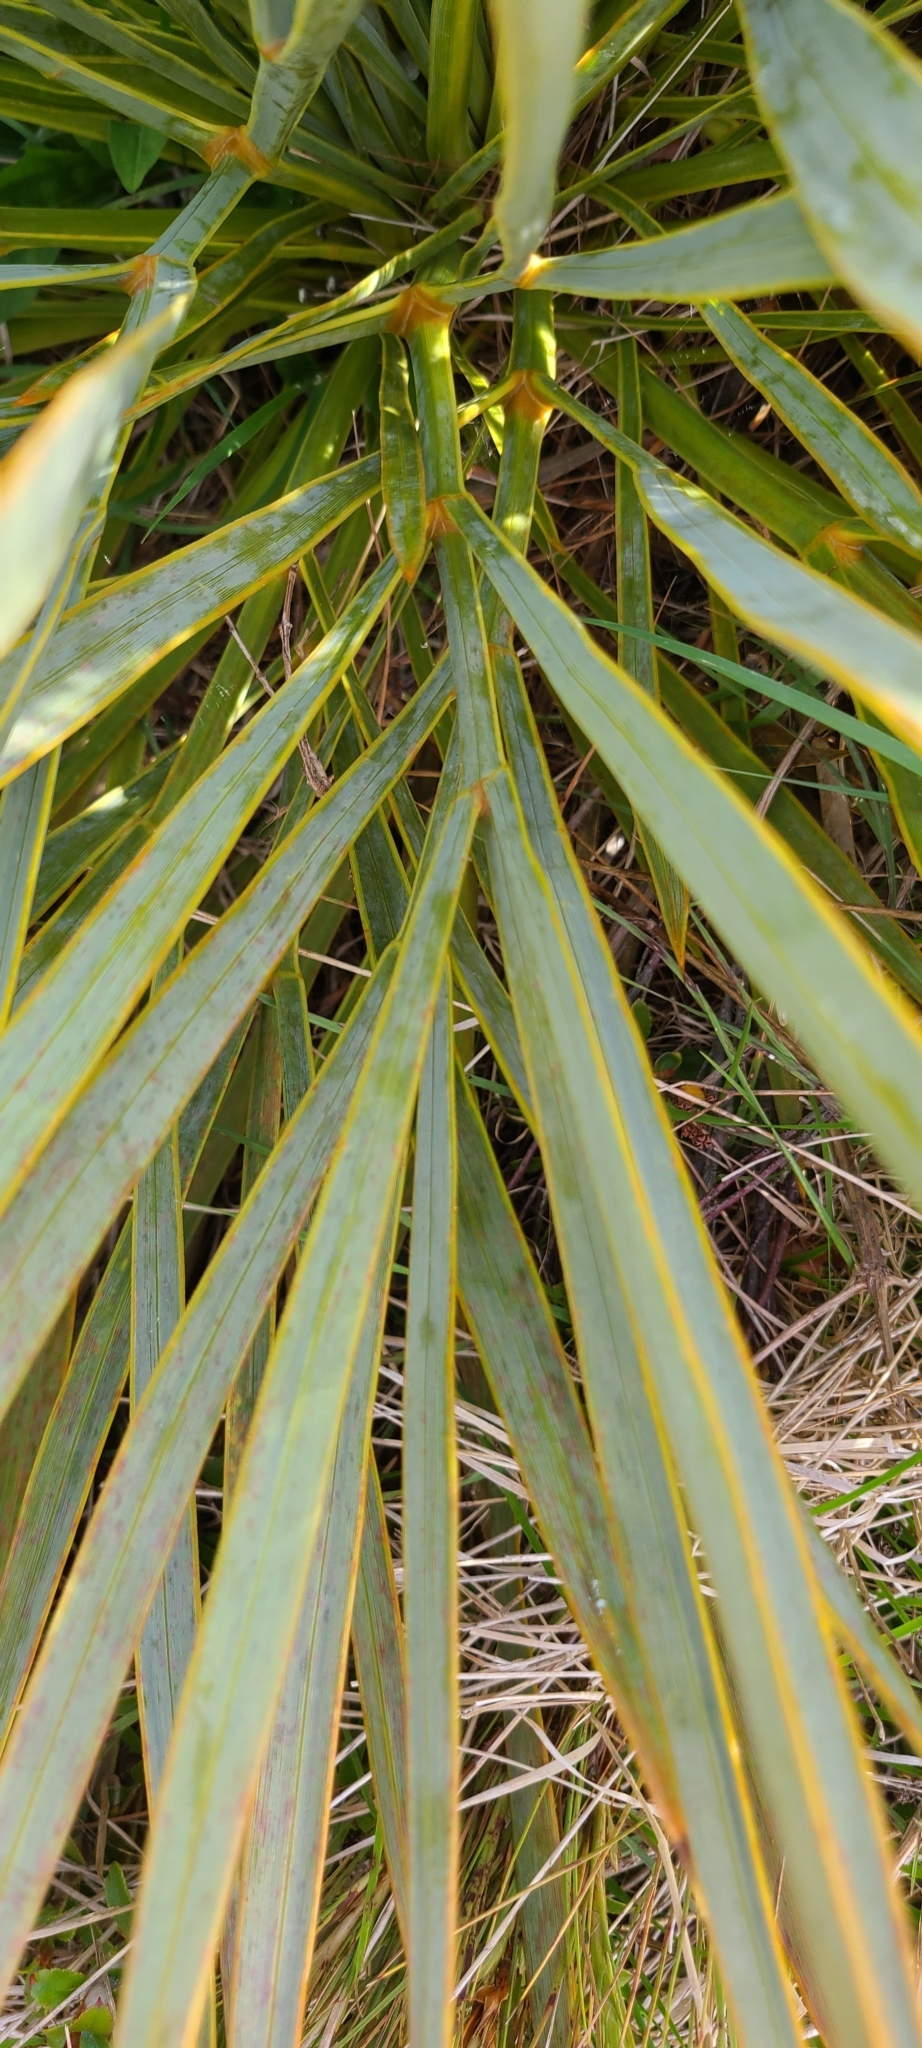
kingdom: Plantae
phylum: Tracheophyta
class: Magnoliopsida
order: Apiales
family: Apiaceae
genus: Aciphylla
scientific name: Aciphylla aurea
